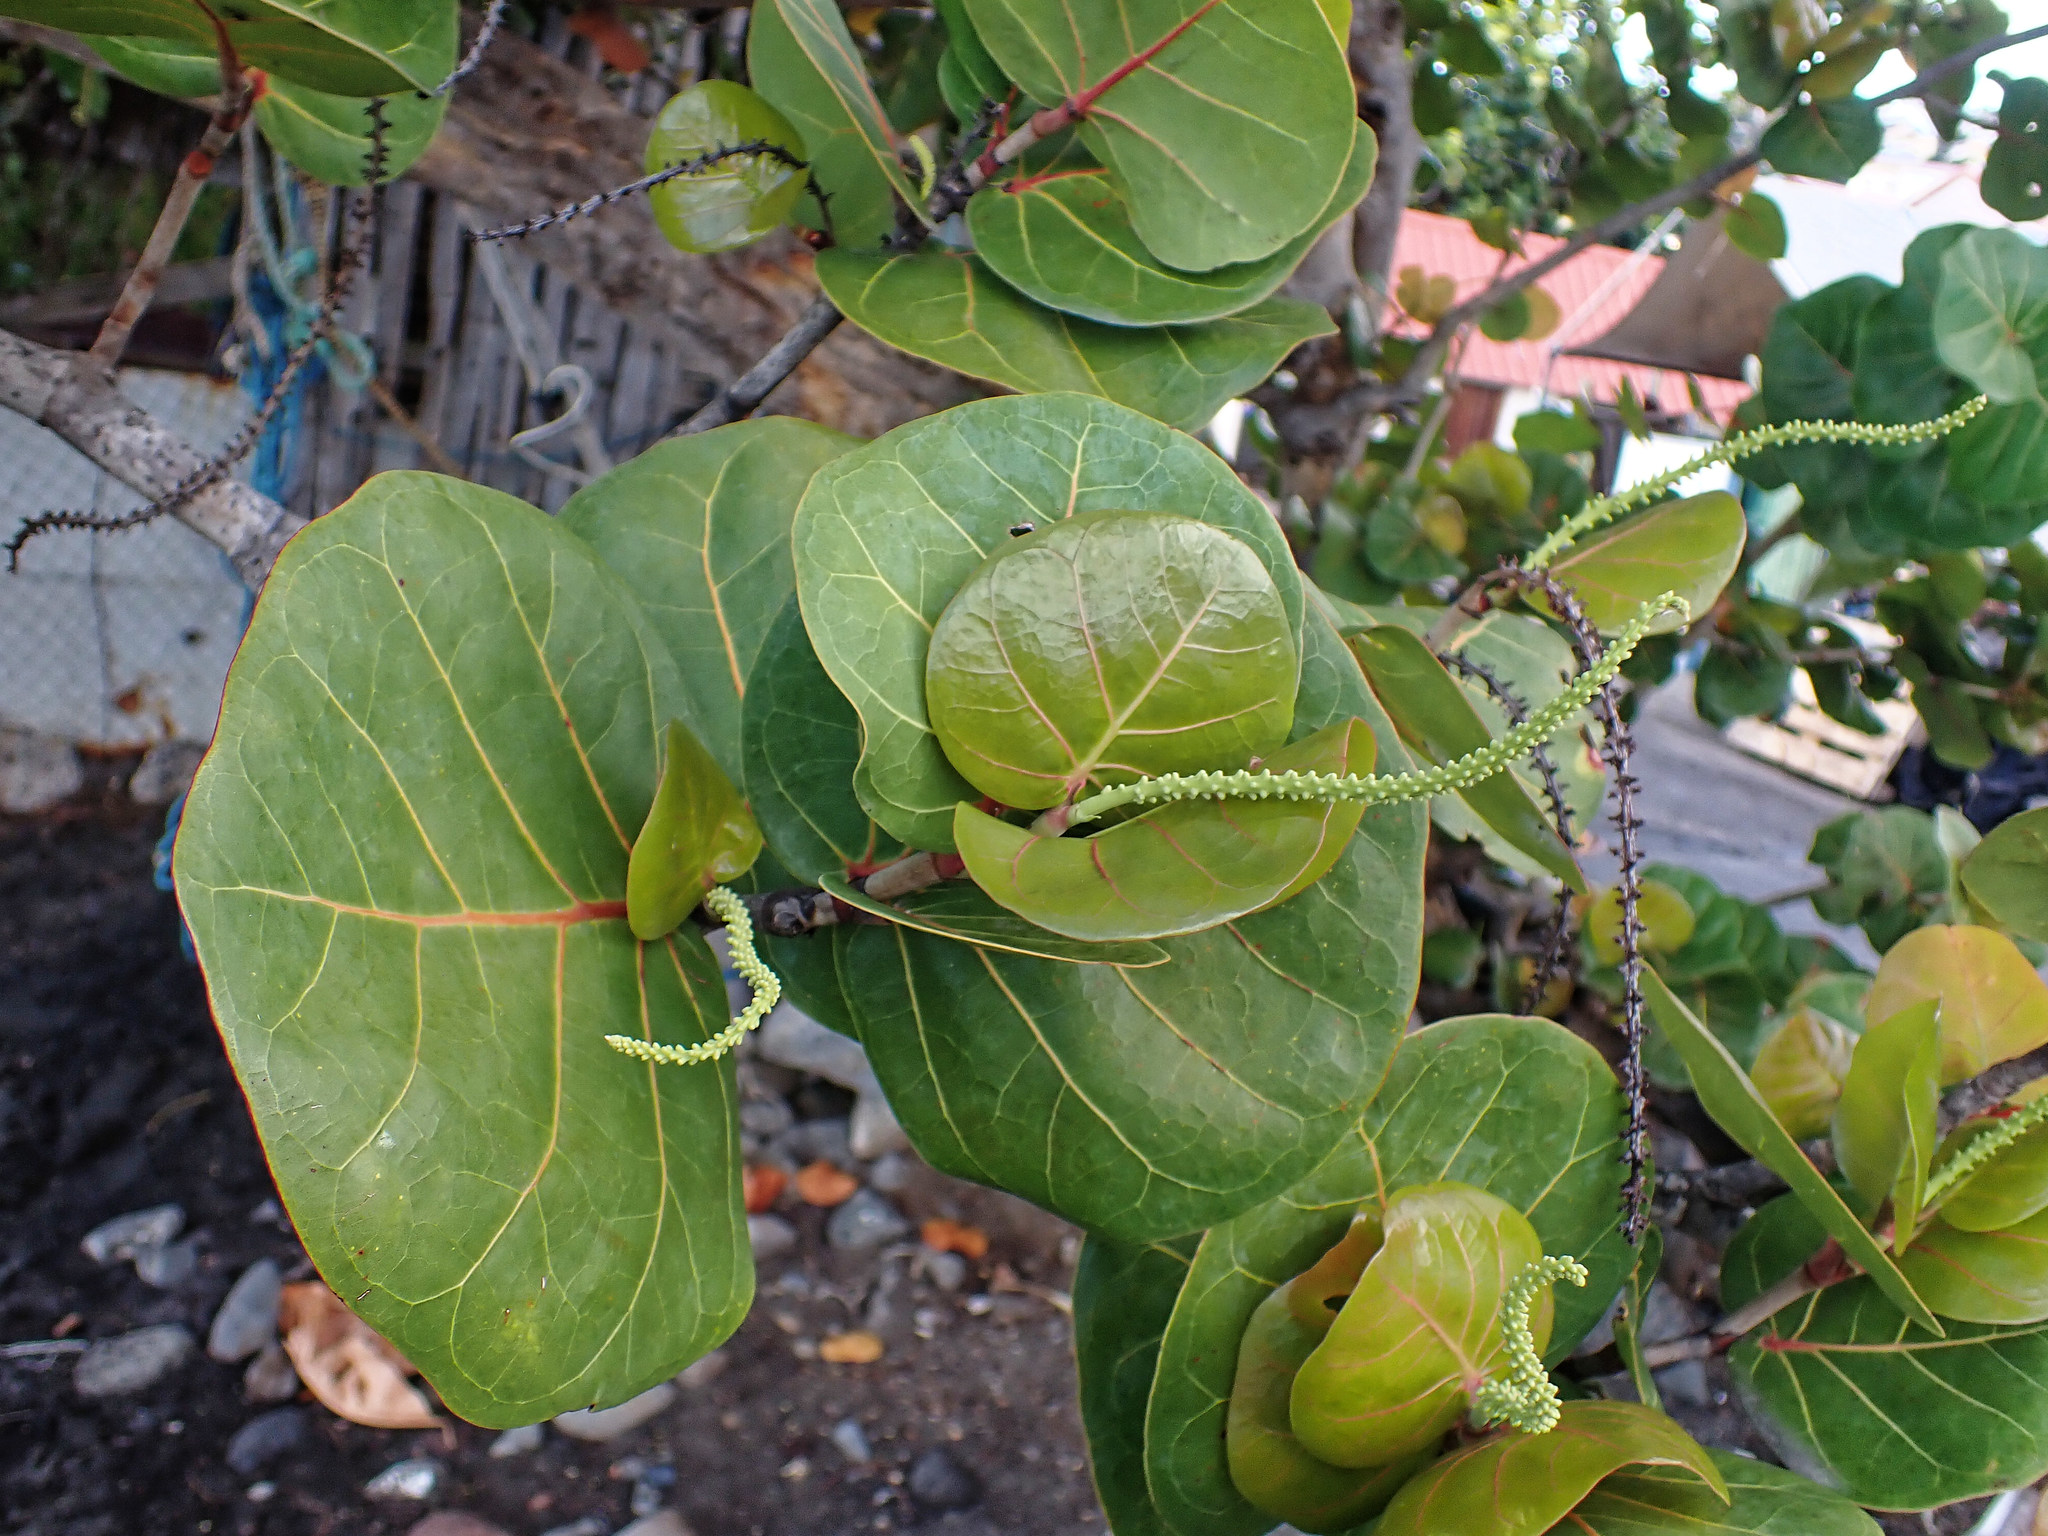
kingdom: Plantae
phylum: Tracheophyta
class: Magnoliopsida
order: Caryophyllales
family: Polygonaceae
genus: Coccoloba
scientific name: Coccoloba uvifera
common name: Seagrape
